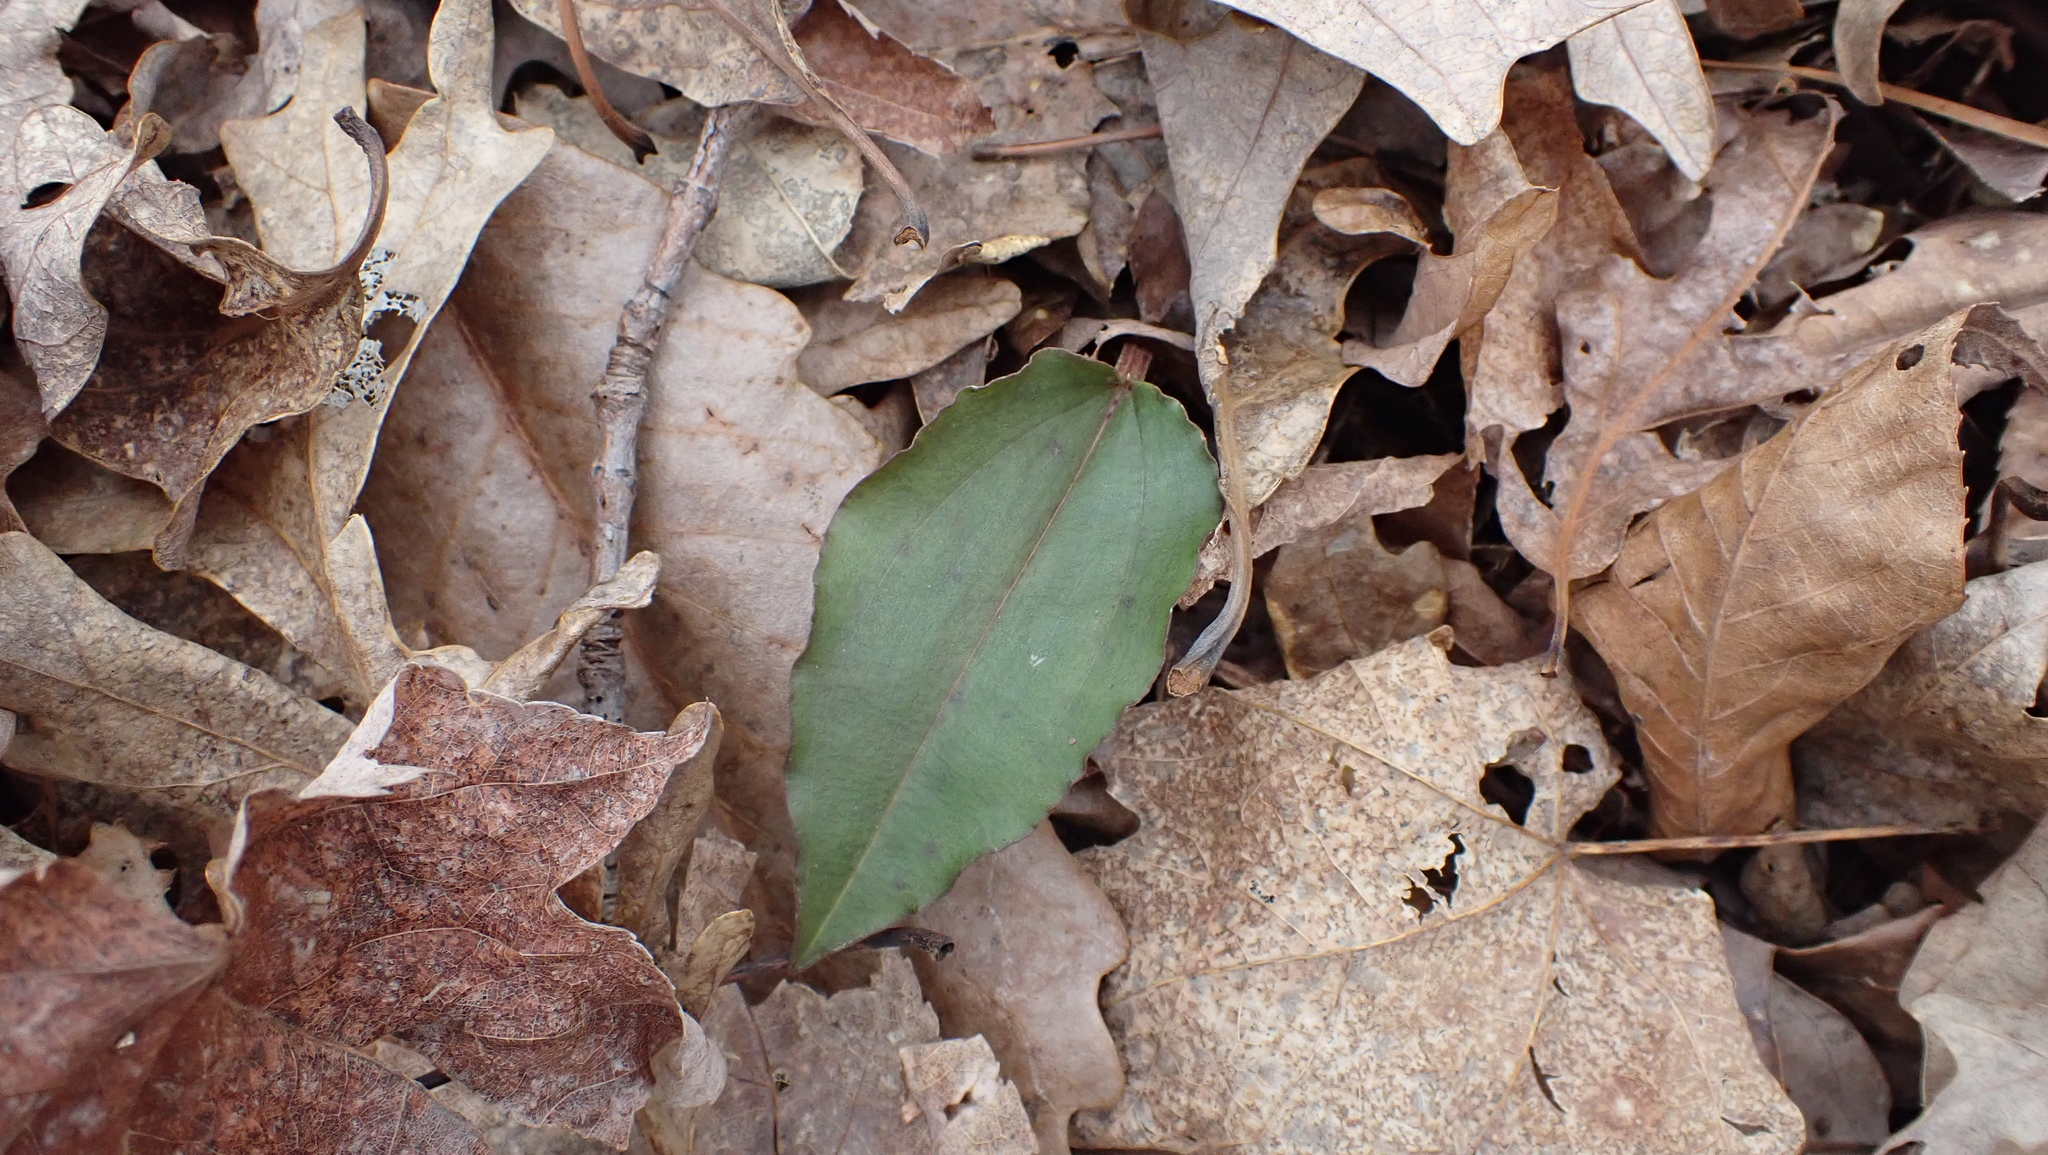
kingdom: Plantae
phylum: Tracheophyta
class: Liliopsida
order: Asparagales
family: Orchidaceae
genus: Tipularia
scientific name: Tipularia discolor
